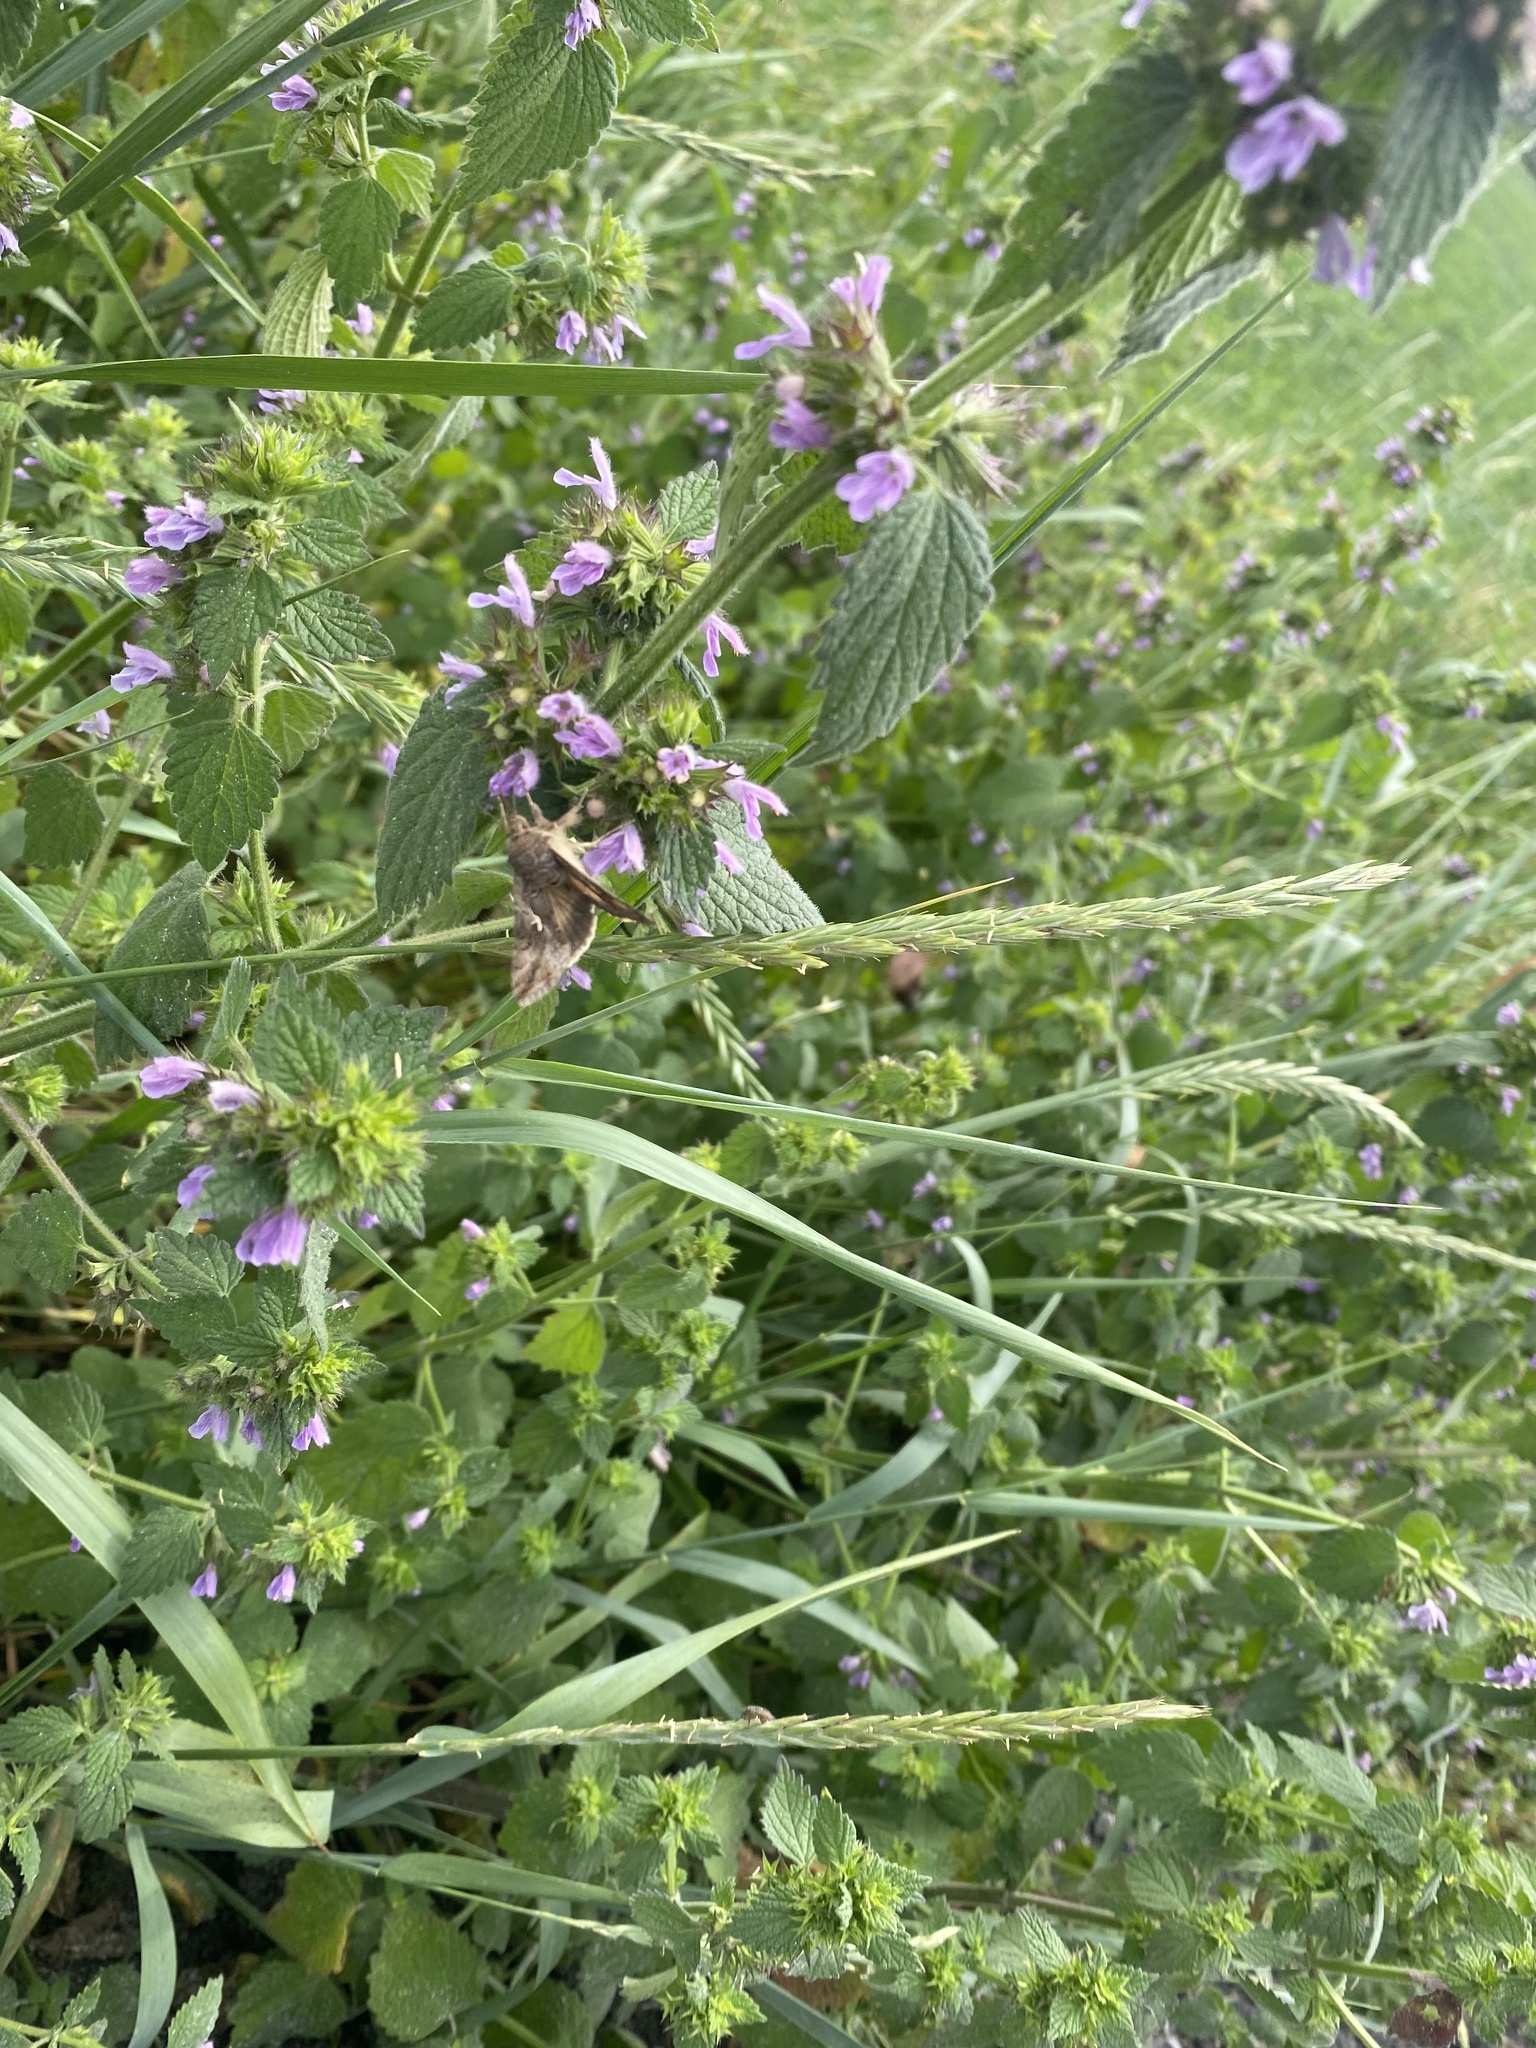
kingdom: Plantae
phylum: Tracheophyta
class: Magnoliopsida
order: Lamiales
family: Lamiaceae
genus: Ballota
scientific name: Ballota nigra
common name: Black horehound
